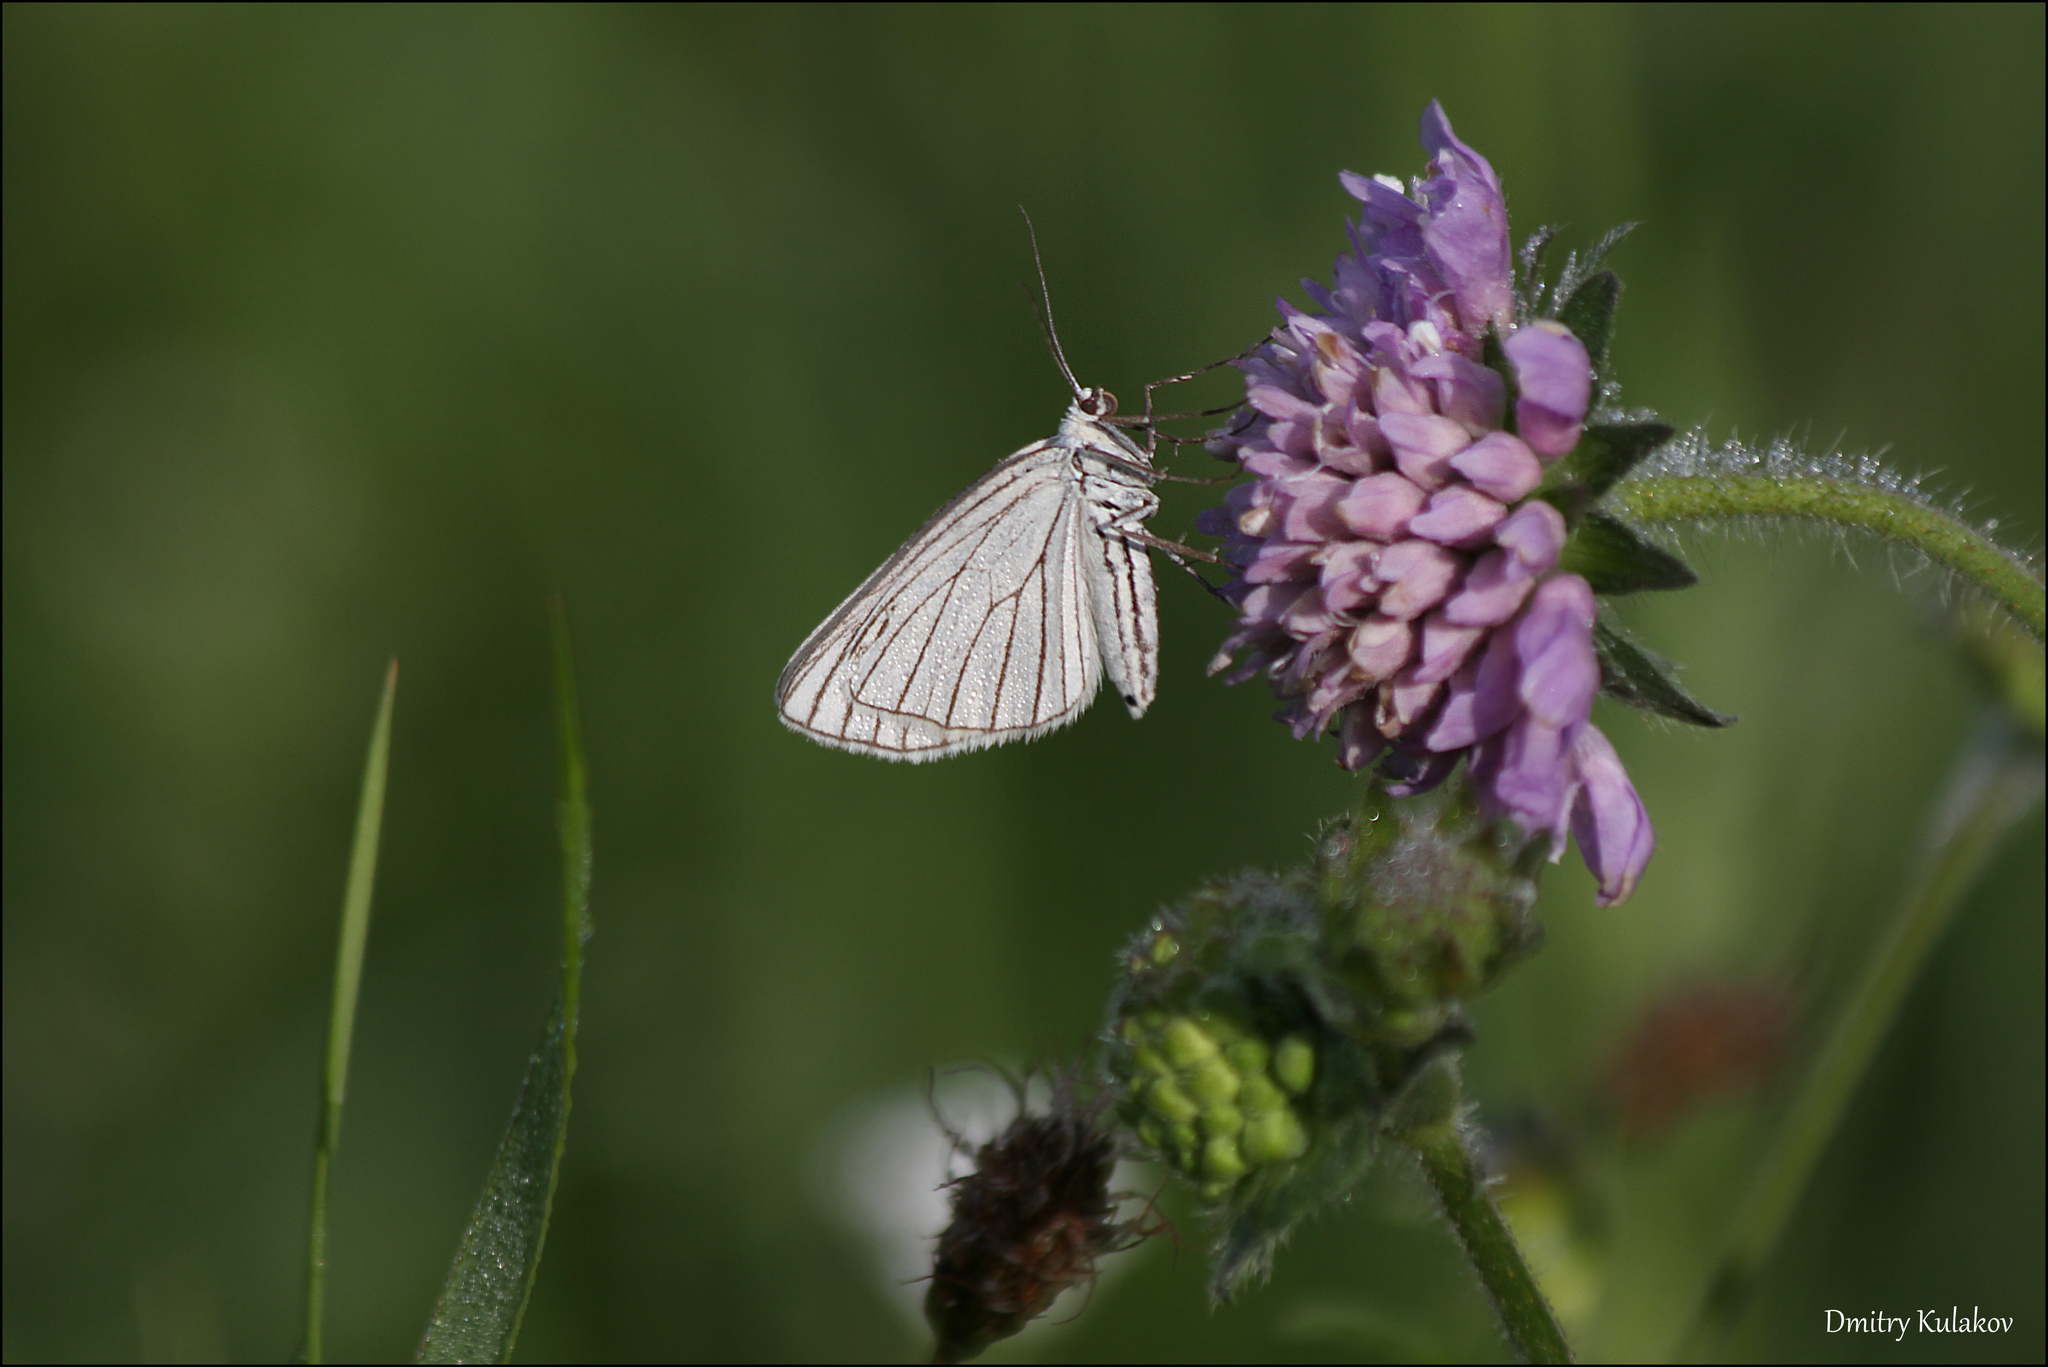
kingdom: Animalia
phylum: Arthropoda
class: Insecta
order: Lepidoptera
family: Geometridae
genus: Siona
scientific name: Siona lineata
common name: Black-veined moth
